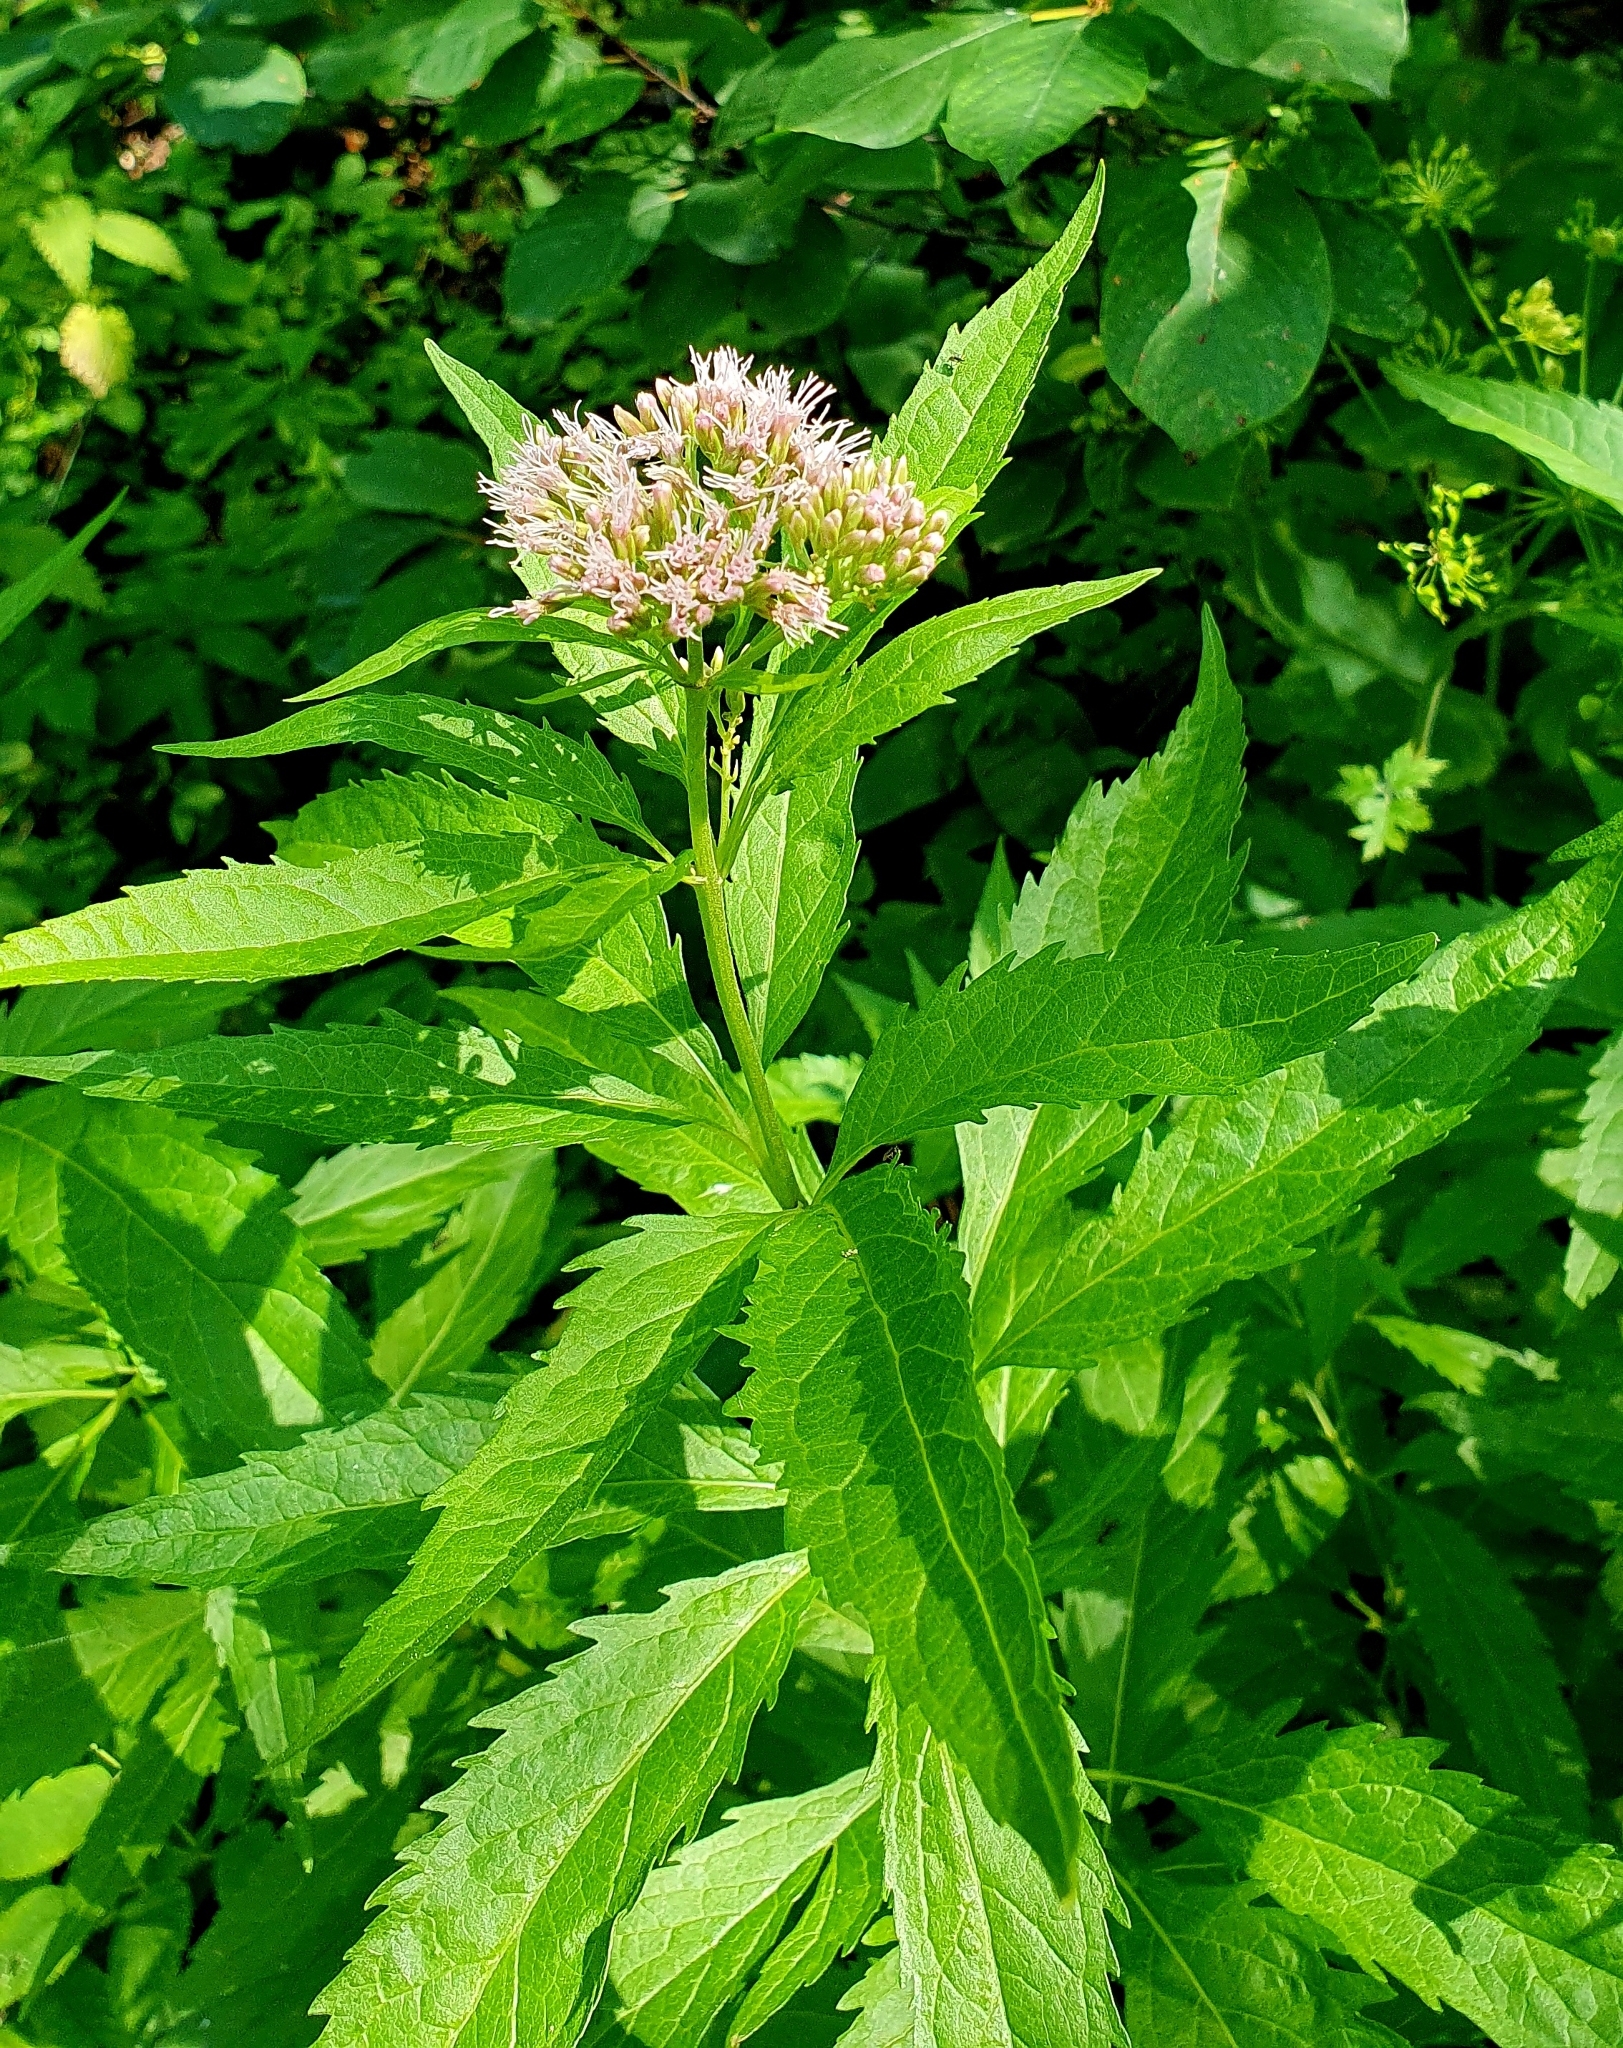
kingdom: Plantae
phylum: Tracheophyta
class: Magnoliopsida
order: Asterales
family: Asteraceae
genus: Eupatorium
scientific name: Eupatorium cannabinum
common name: Hemp-agrimony
